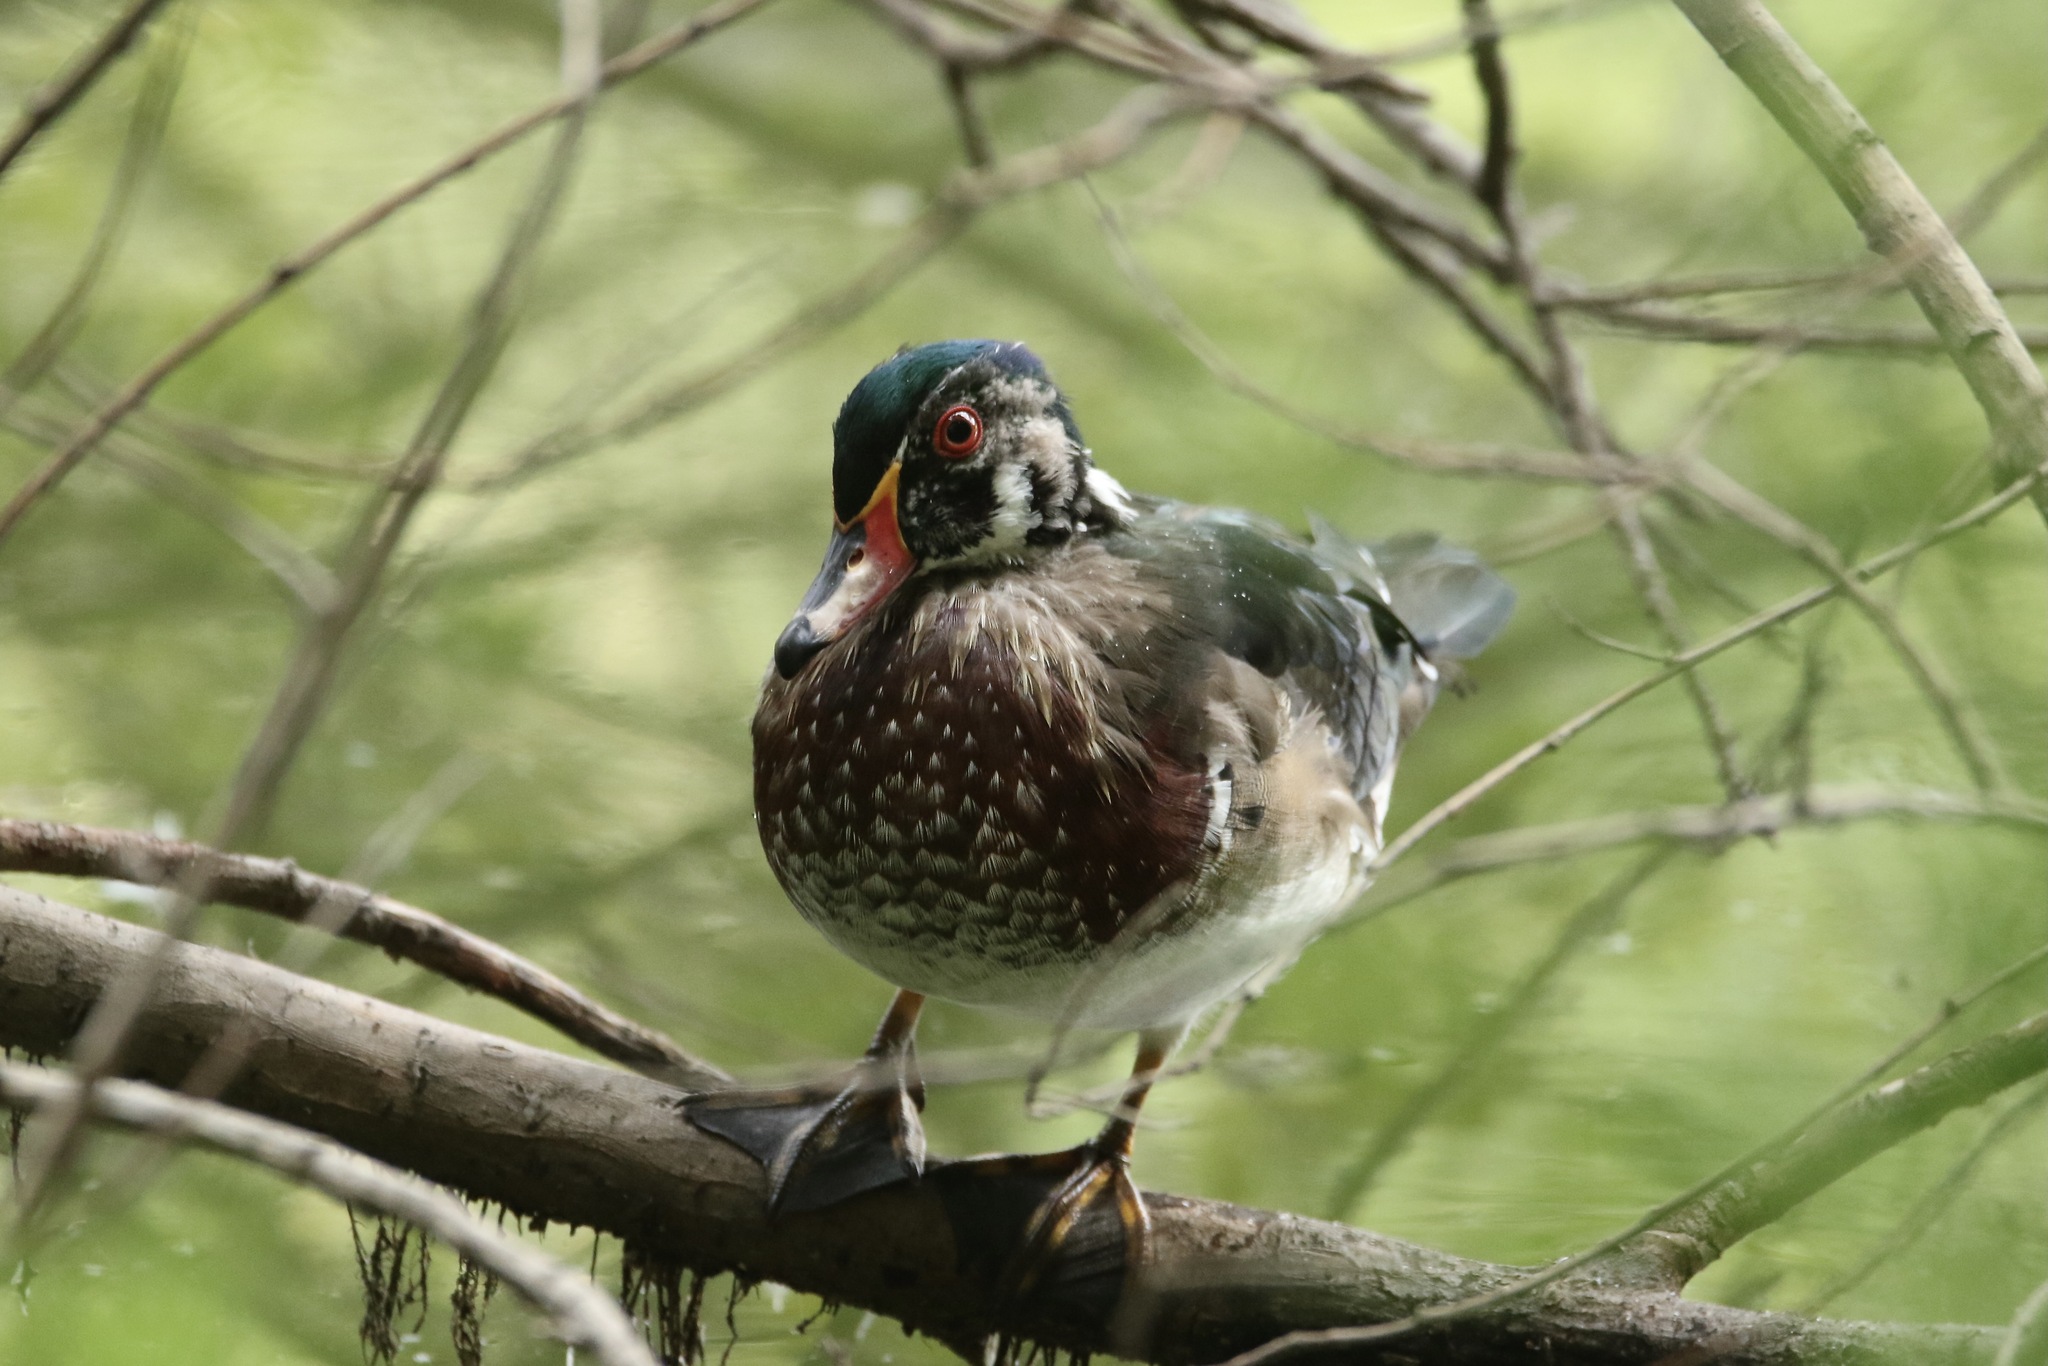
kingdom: Animalia
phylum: Chordata
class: Aves
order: Anseriformes
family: Anatidae
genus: Aix
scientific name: Aix sponsa
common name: Wood duck
